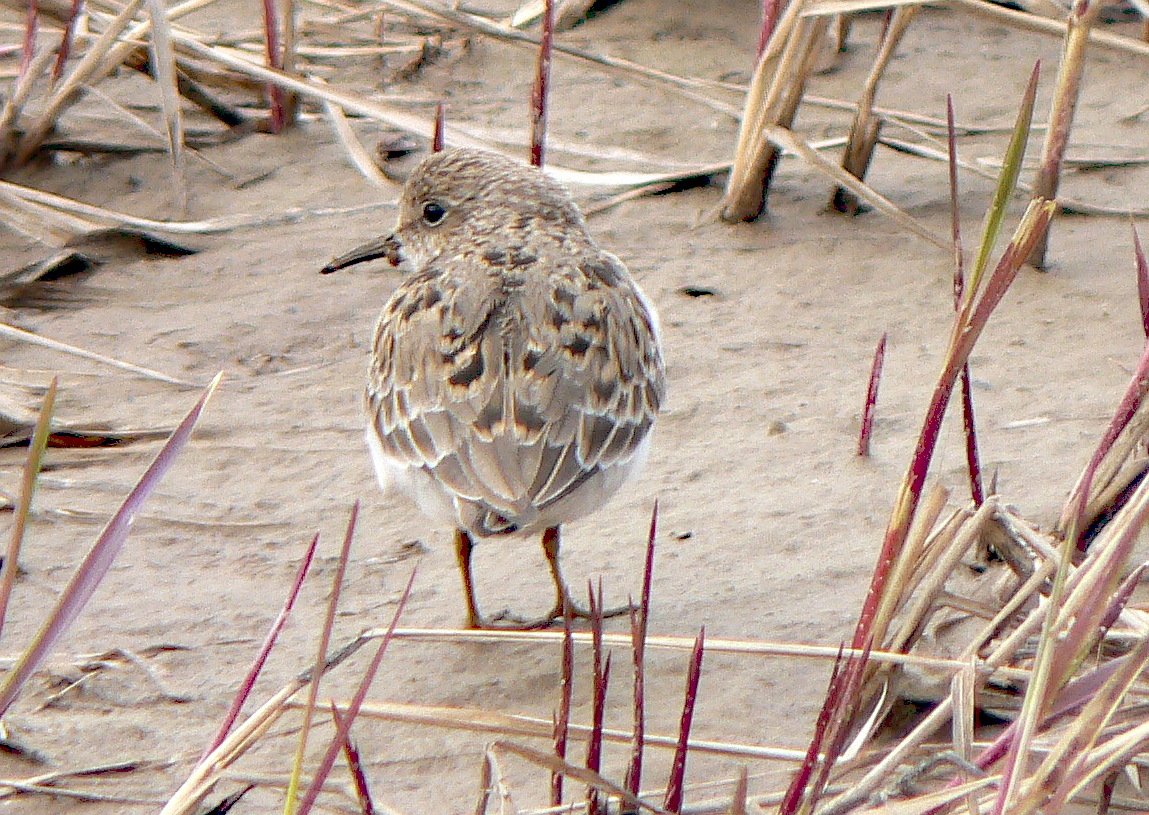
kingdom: Animalia
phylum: Chordata
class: Aves
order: Charadriiformes
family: Scolopacidae
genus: Calidris
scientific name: Calidris temminckii
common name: Temminck's stint
